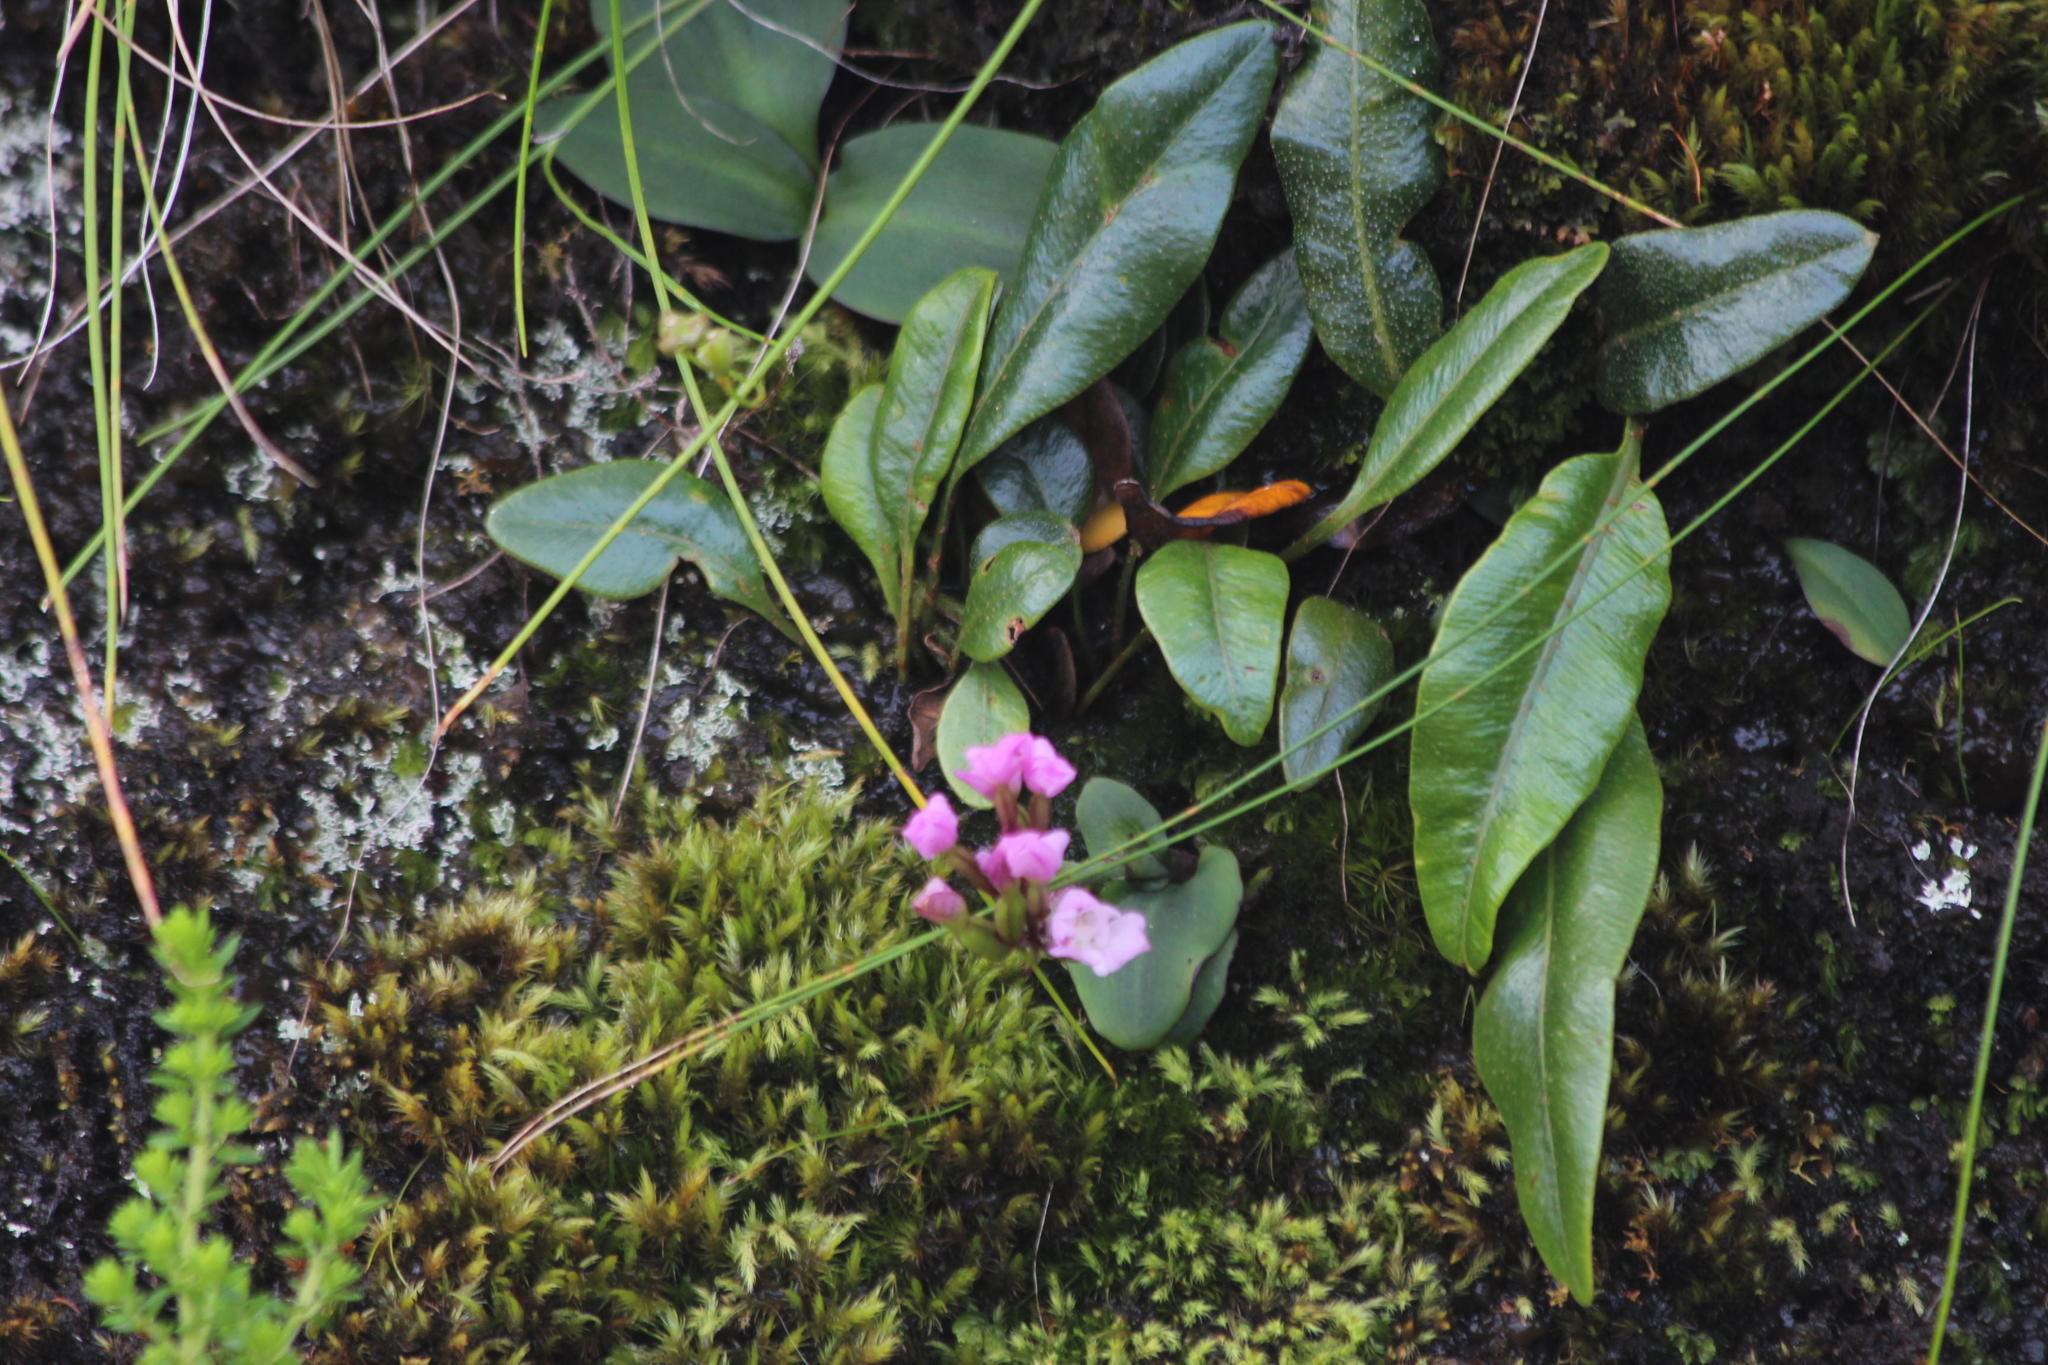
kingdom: Plantae
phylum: Tracheophyta
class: Polypodiopsida
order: Polypodiales
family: Dryopteridaceae
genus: Elaphoglossum
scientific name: Elaphoglossum conforme
